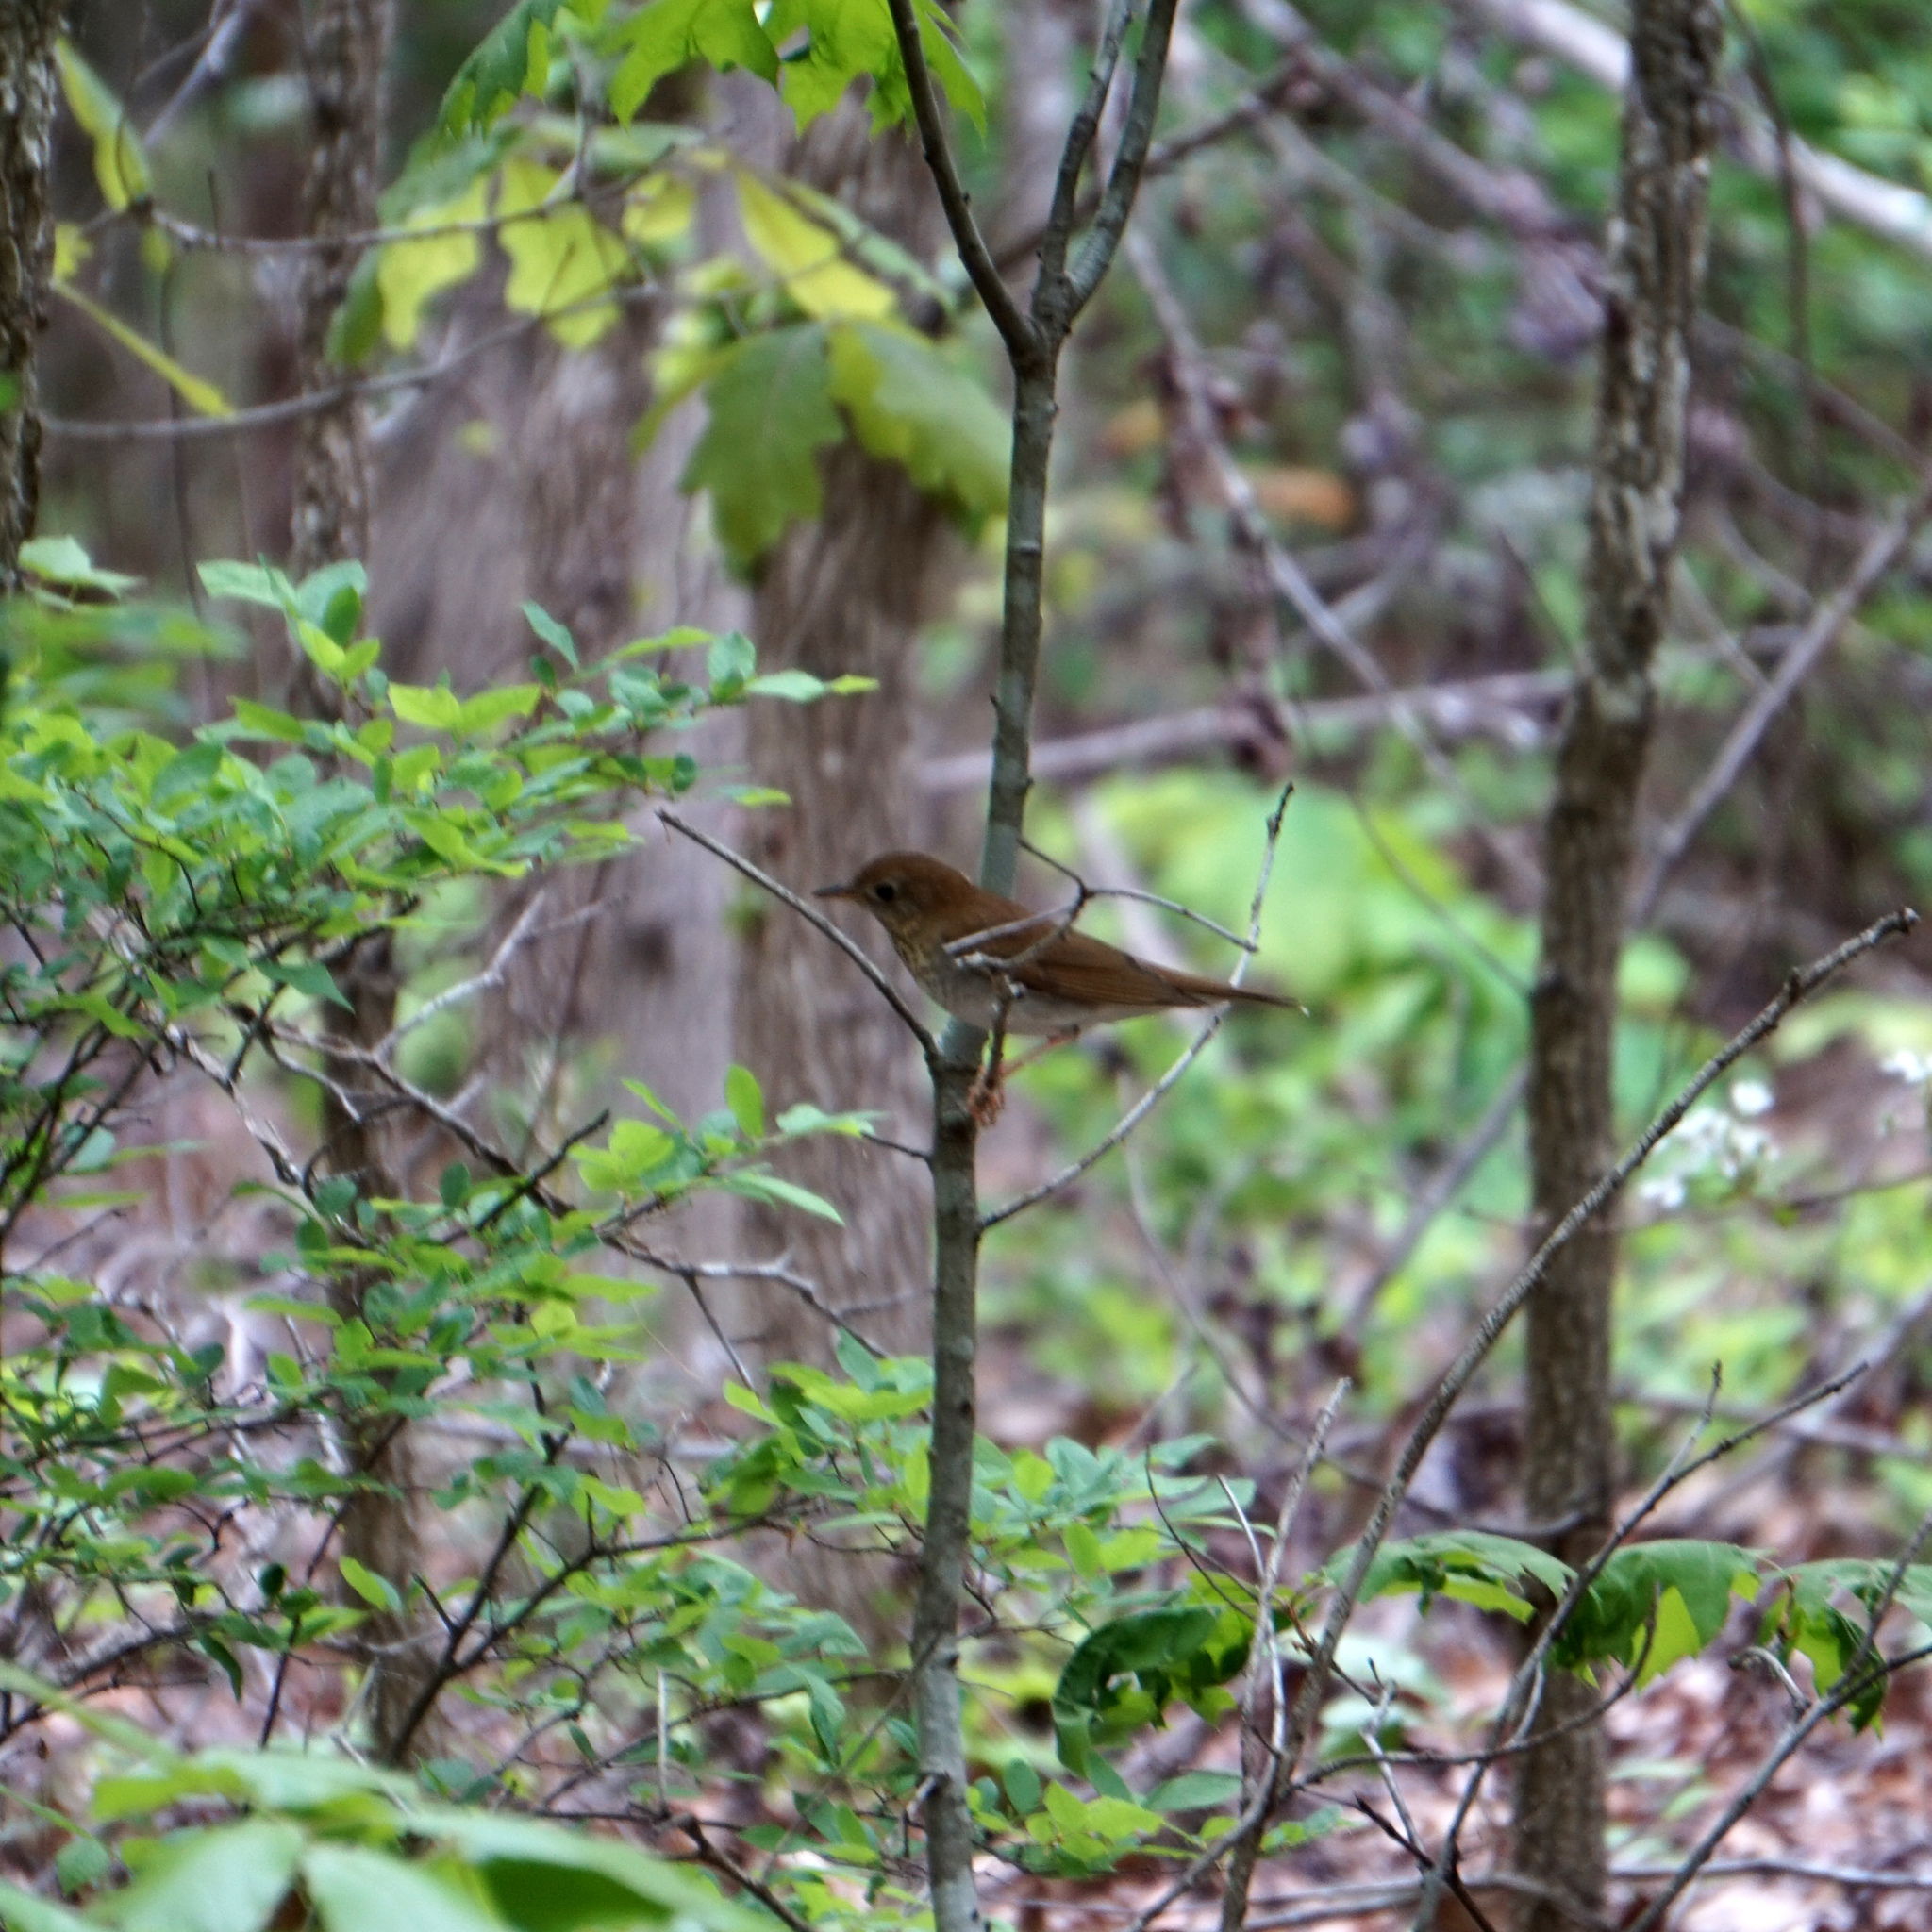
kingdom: Animalia
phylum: Chordata
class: Aves
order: Passeriformes
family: Turdidae
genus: Catharus
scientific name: Catharus fuscescens
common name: Veery
